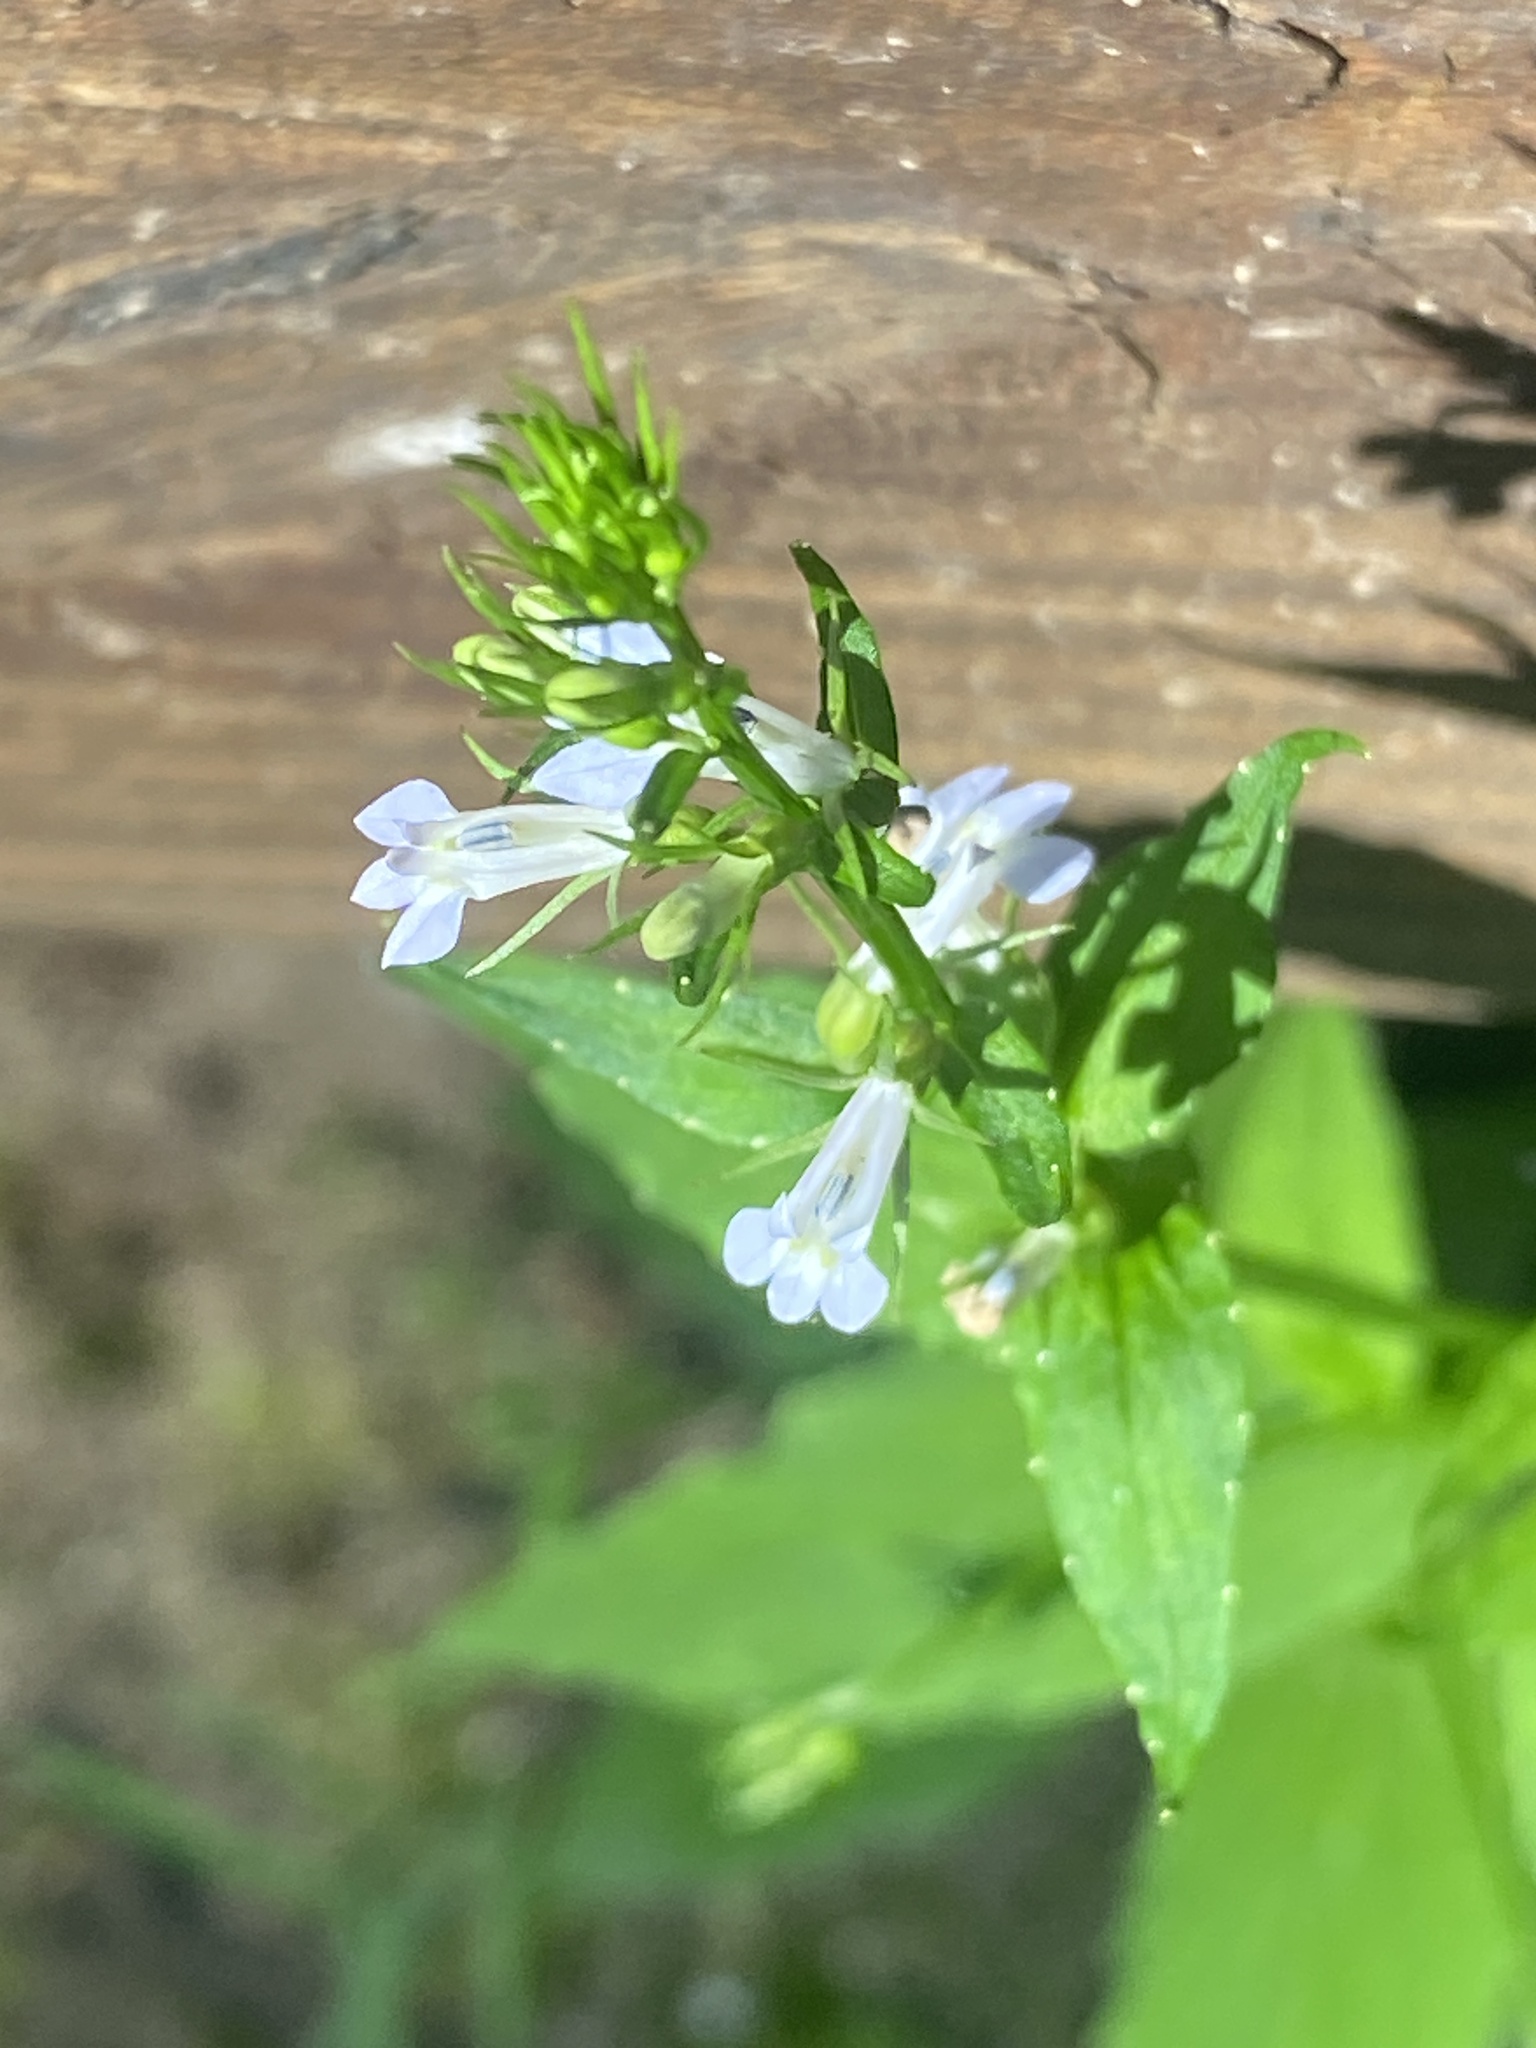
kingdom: Plantae
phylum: Tracheophyta
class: Magnoliopsida
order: Asterales
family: Campanulaceae
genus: Lobelia
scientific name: Lobelia inflata
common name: Indian tobacco
